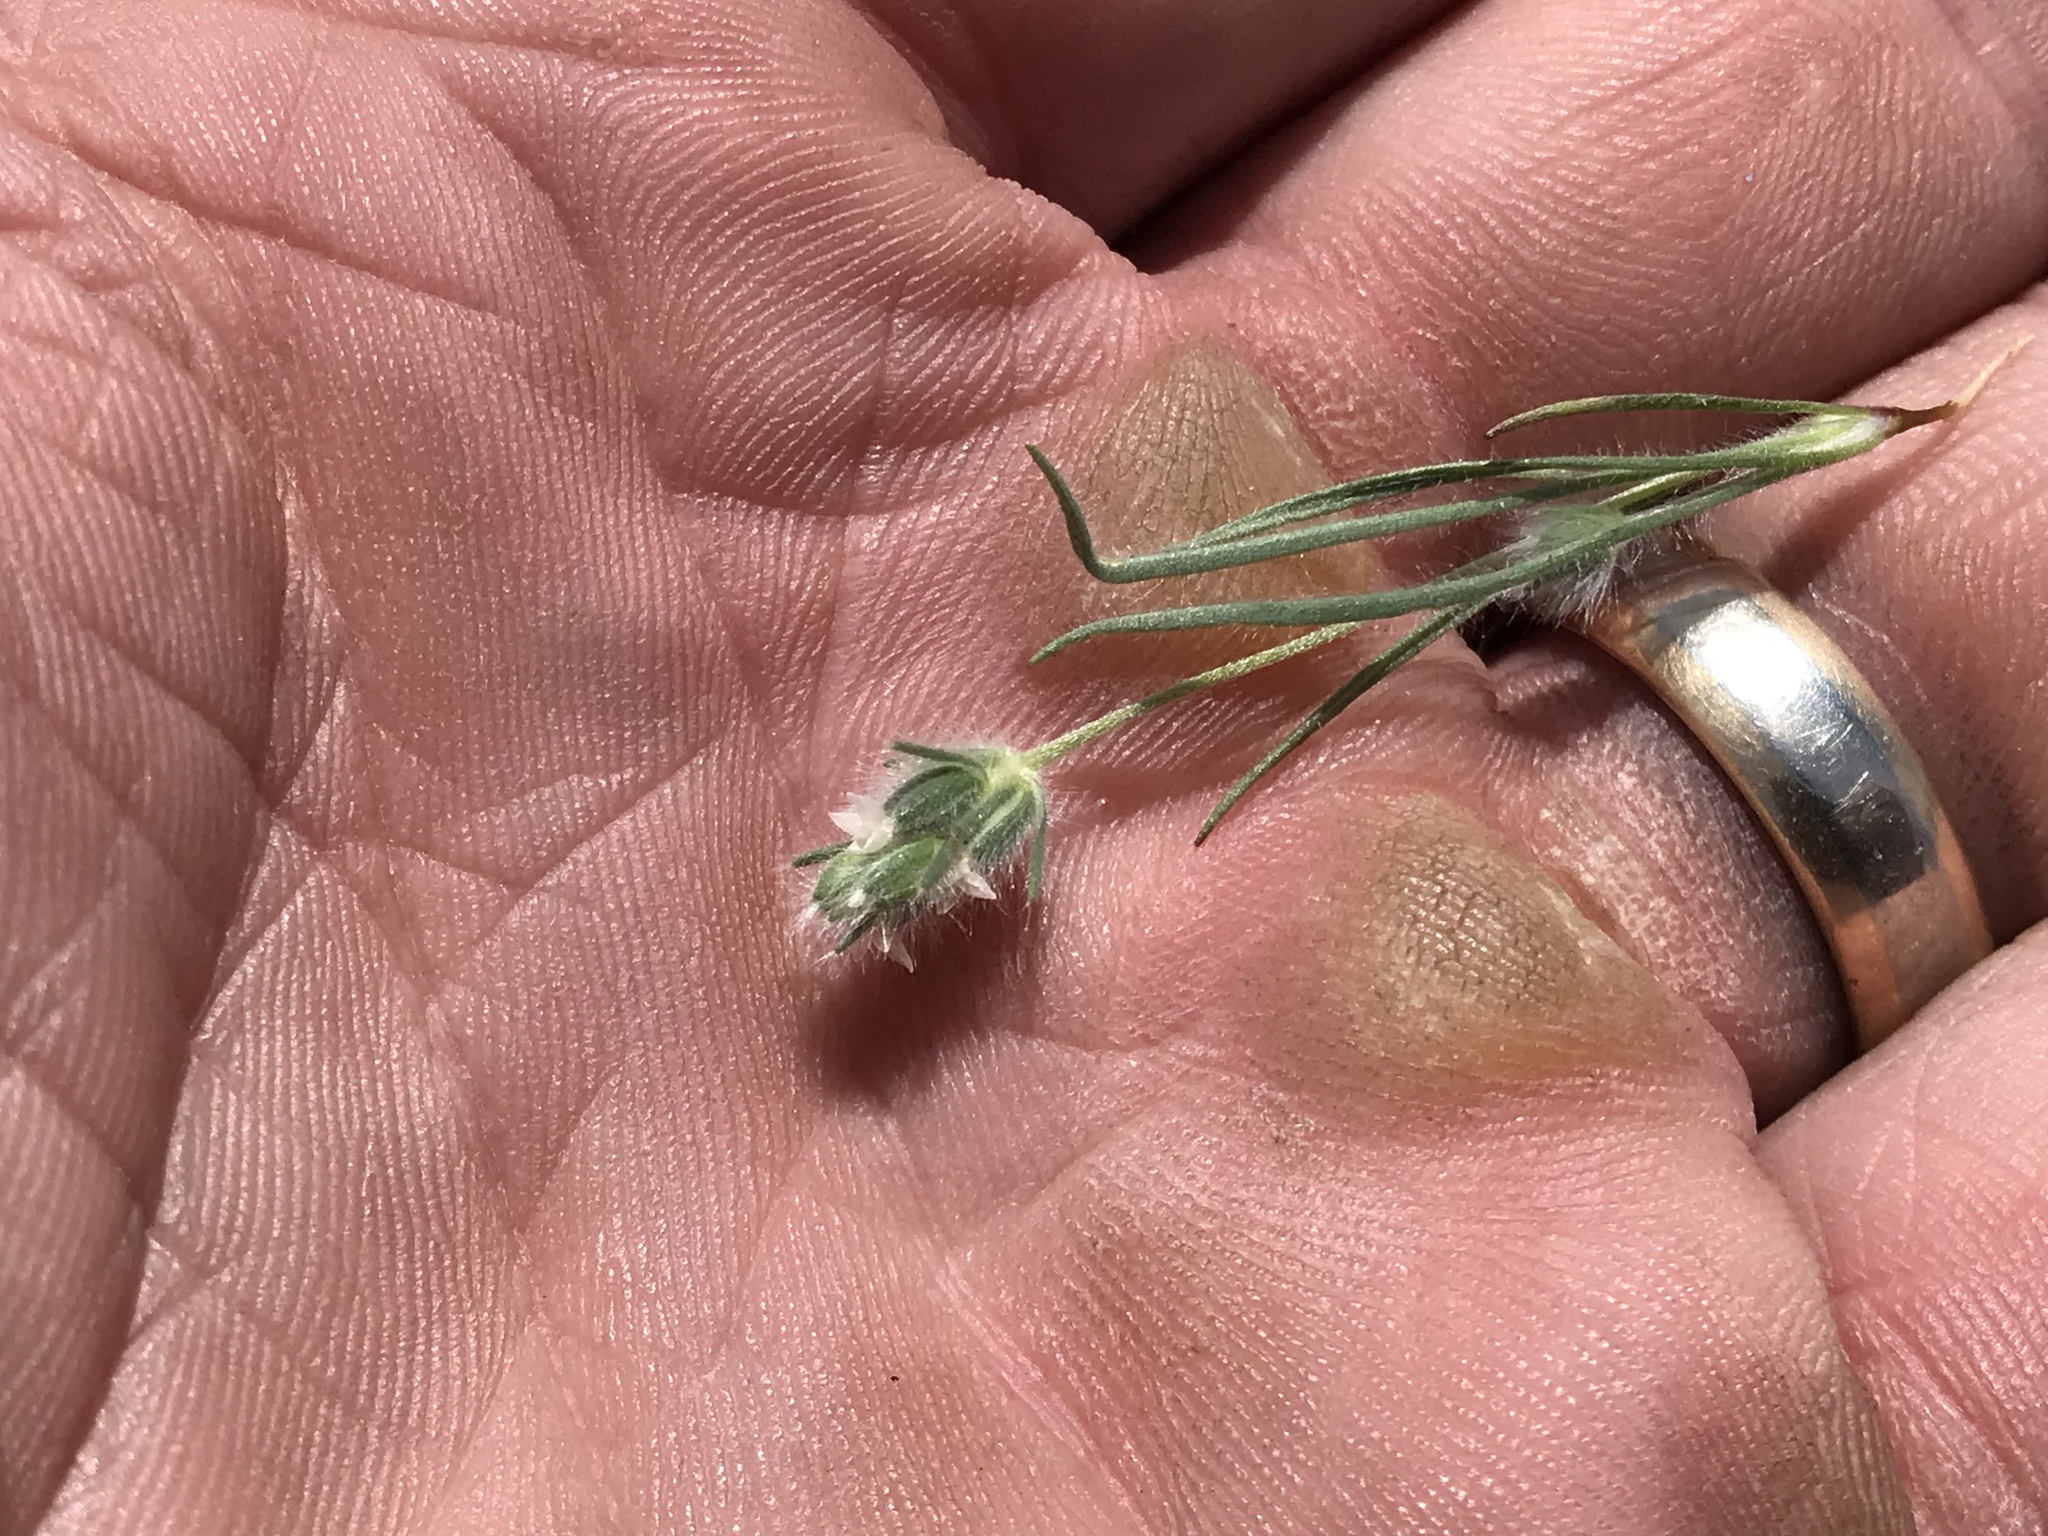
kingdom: Plantae
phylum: Tracheophyta
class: Magnoliopsida
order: Lamiales
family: Plantaginaceae
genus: Plantago
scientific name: Plantago ovata
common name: Blond plantain
